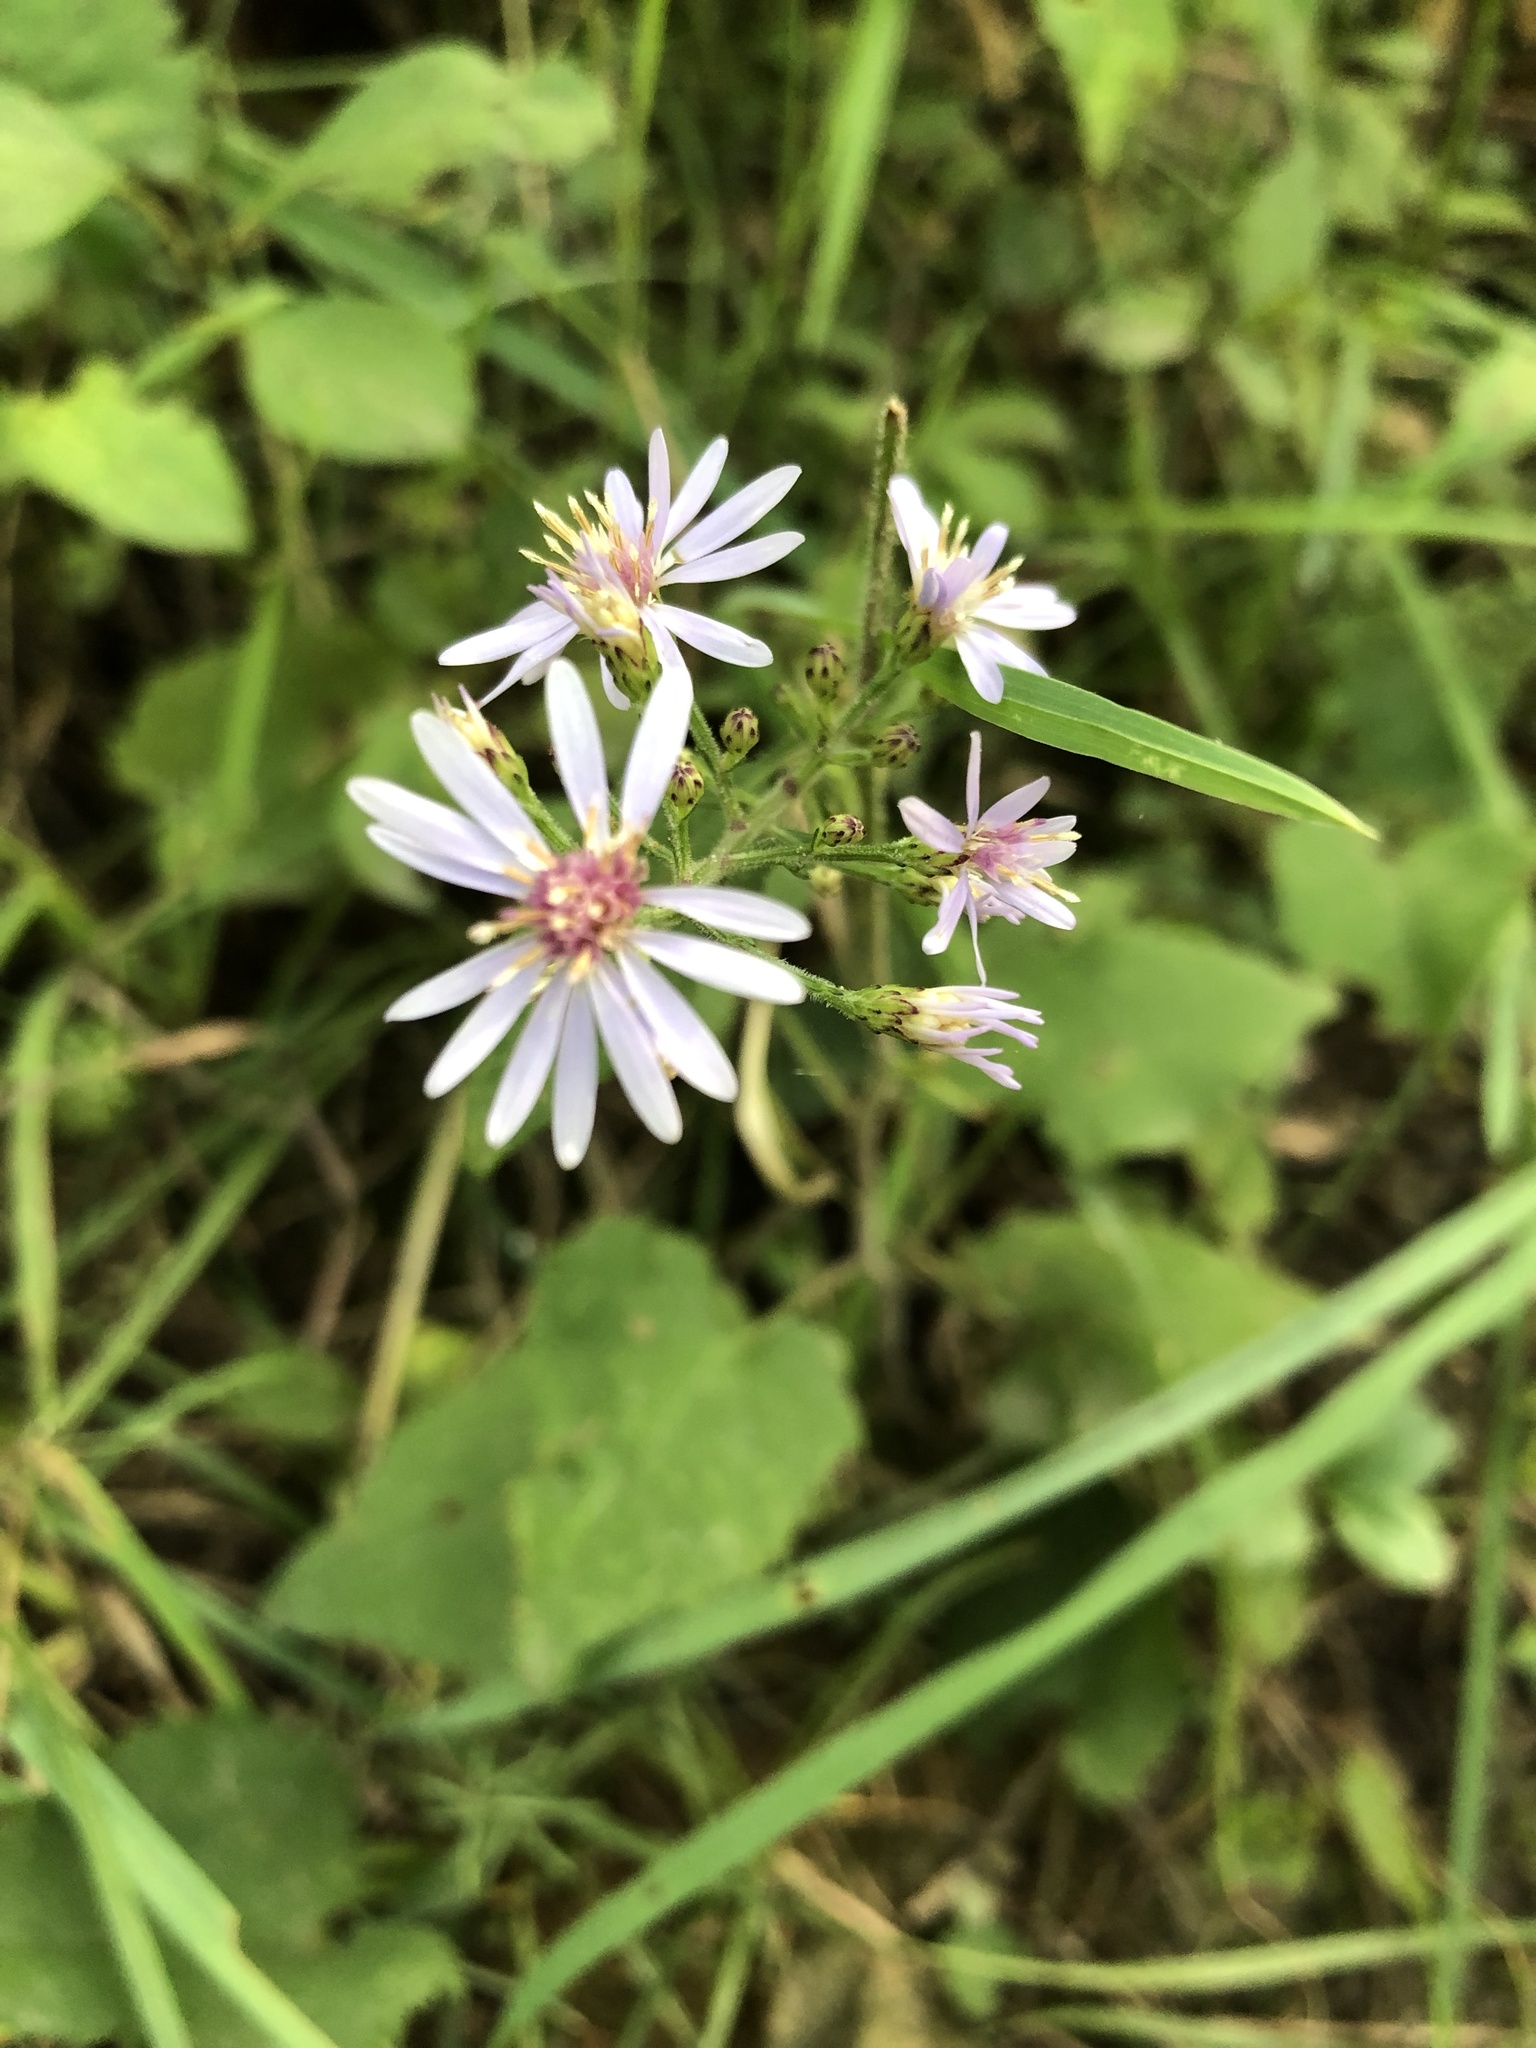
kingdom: Plantae
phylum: Tracheophyta
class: Magnoliopsida
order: Asterales
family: Asteraceae
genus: Symphyotrichum
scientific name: Symphyotrichum cordifolium
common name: Beeweed
